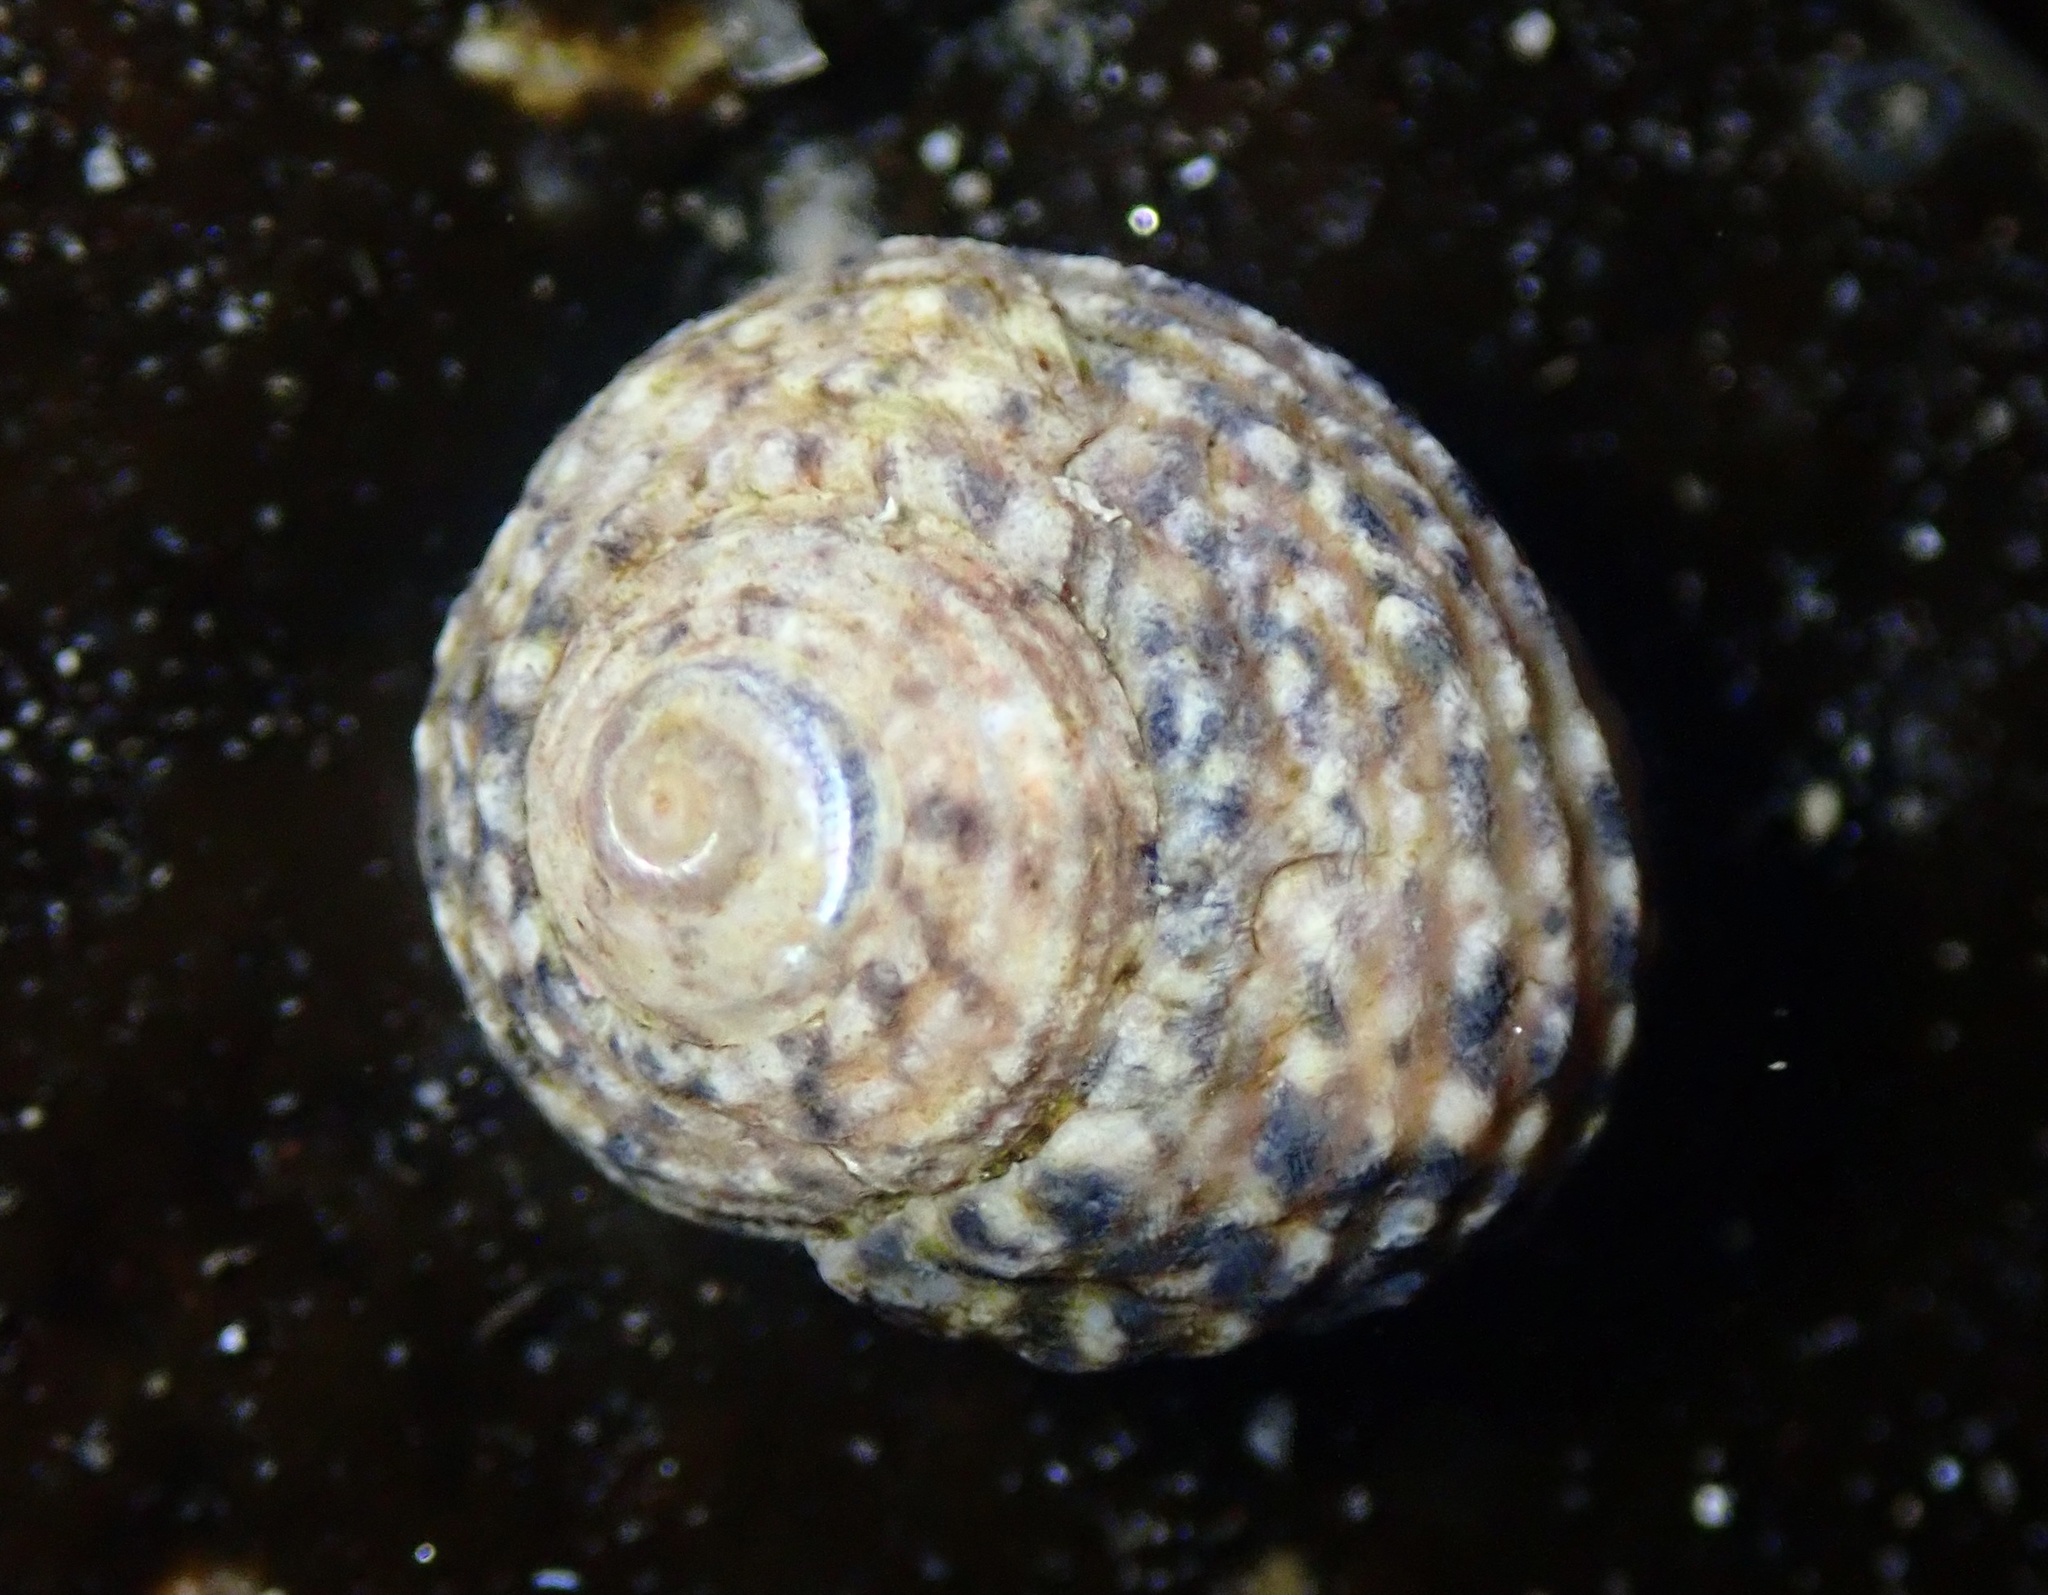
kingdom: Animalia
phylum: Mollusca
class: Gastropoda
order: Trochida
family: Tegulidae
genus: Tegula
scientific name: Tegula eiseni
